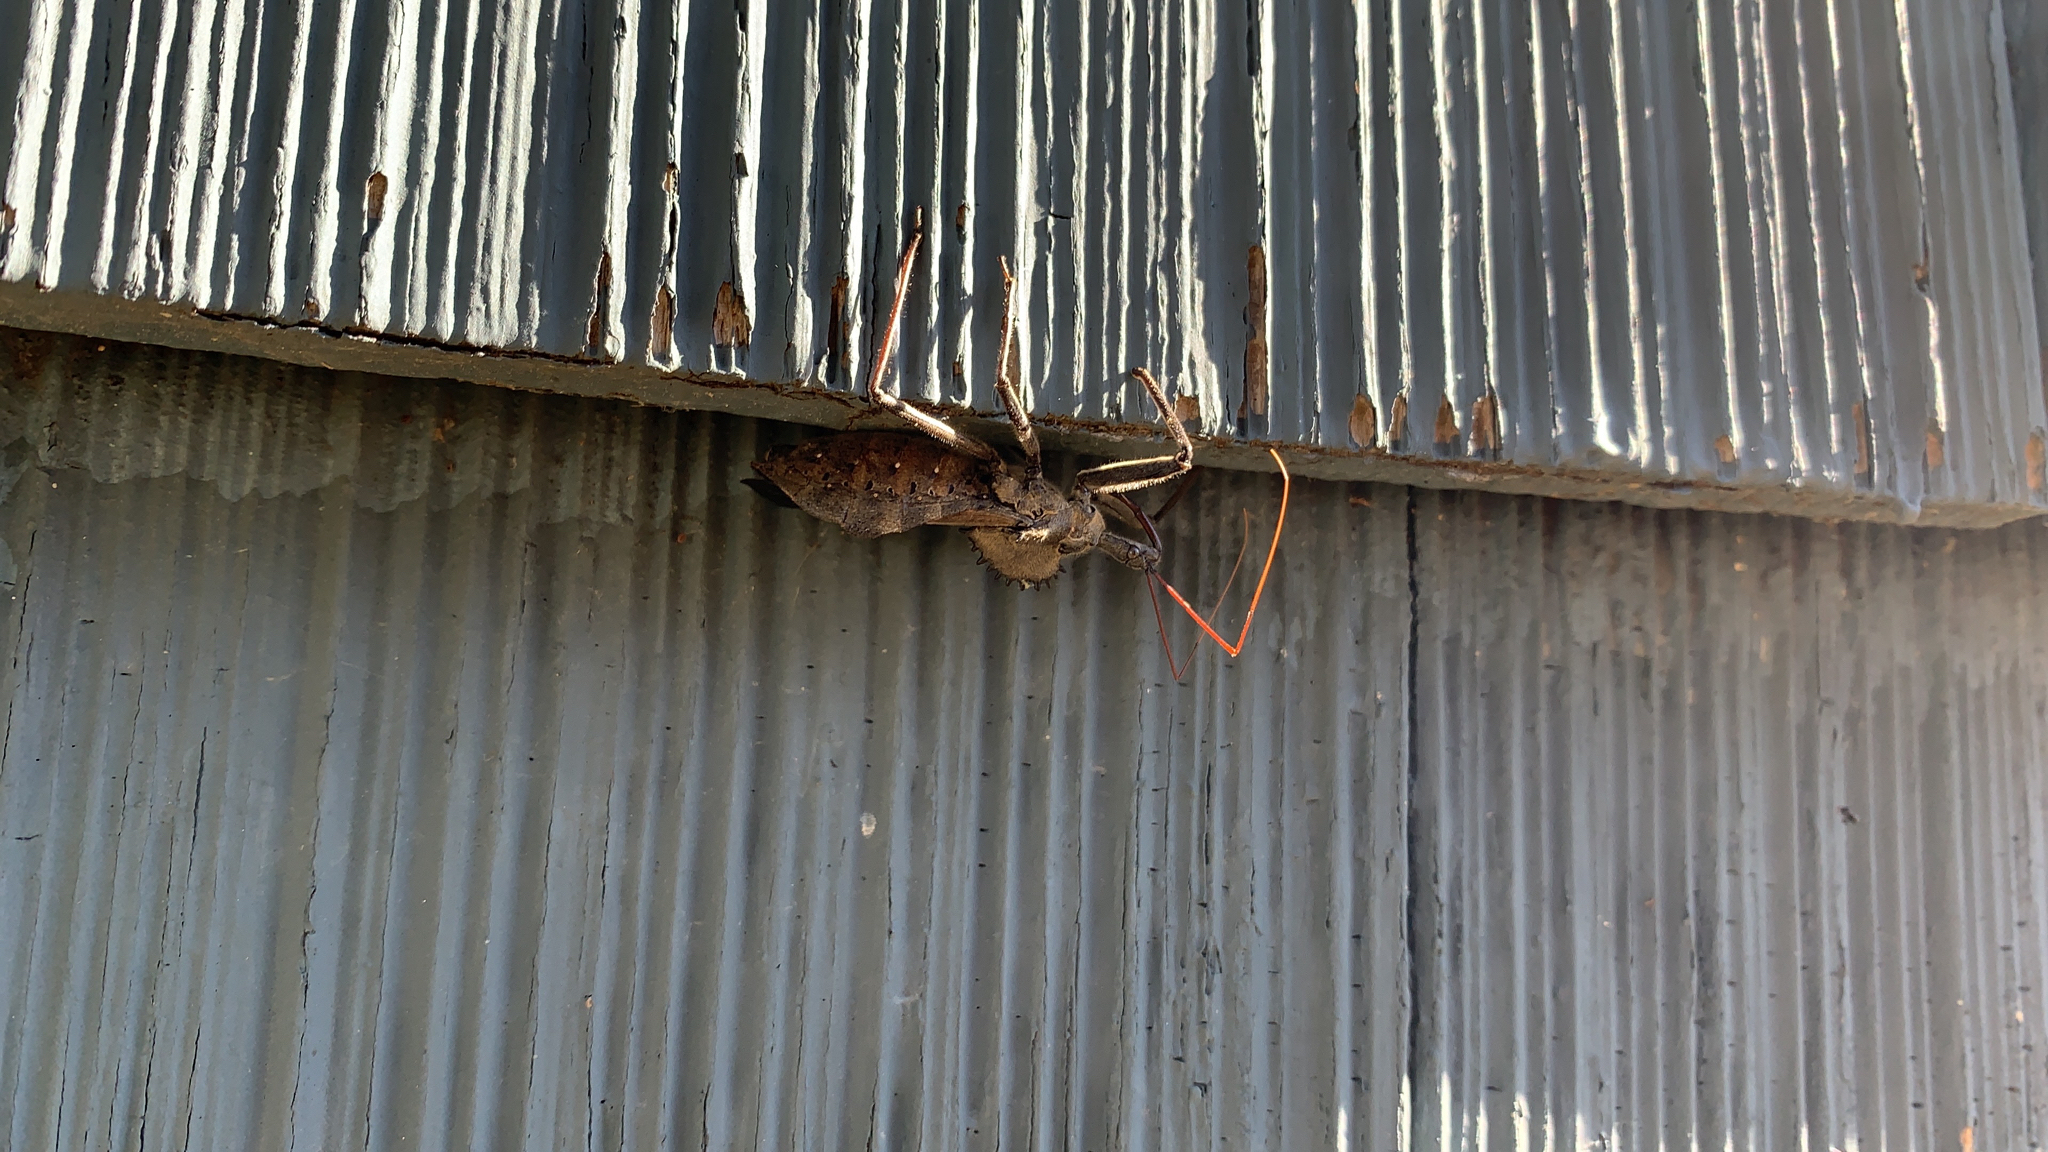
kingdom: Animalia
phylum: Arthropoda
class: Insecta
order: Hemiptera
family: Reduviidae
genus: Arilus
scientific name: Arilus cristatus
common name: North american wheel bug
